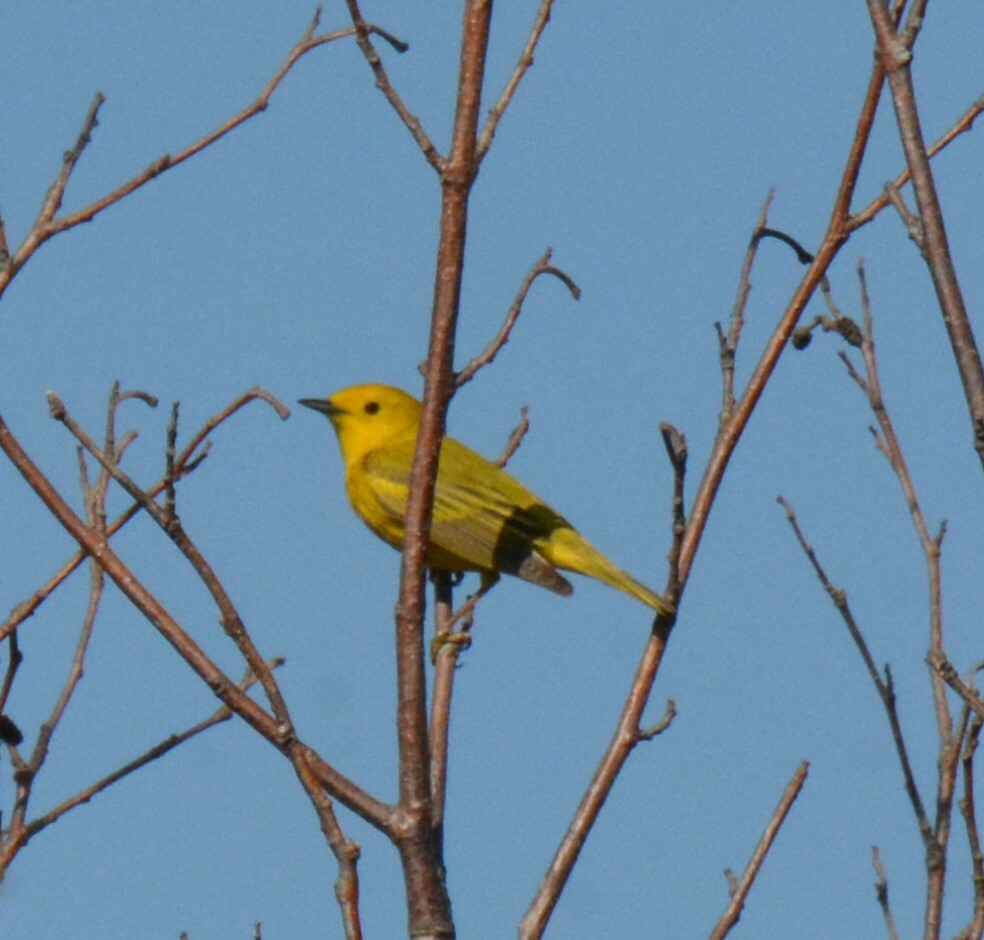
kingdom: Animalia
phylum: Chordata
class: Aves
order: Passeriformes
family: Parulidae
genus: Setophaga
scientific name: Setophaga petechia
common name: Yellow warbler
